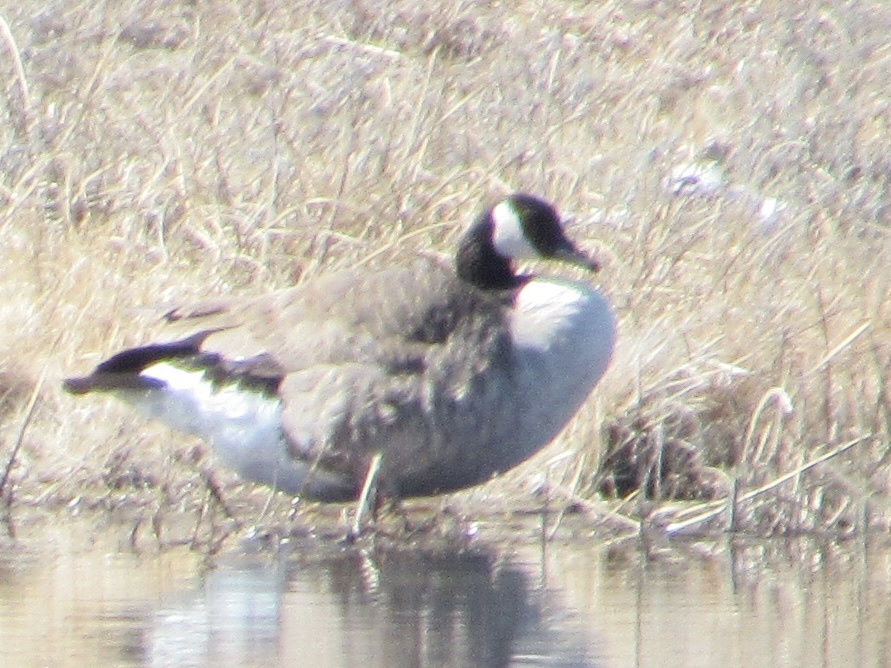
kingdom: Animalia
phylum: Chordata
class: Aves
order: Anseriformes
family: Anatidae
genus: Branta
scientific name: Branta canadensis
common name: Canada goose
